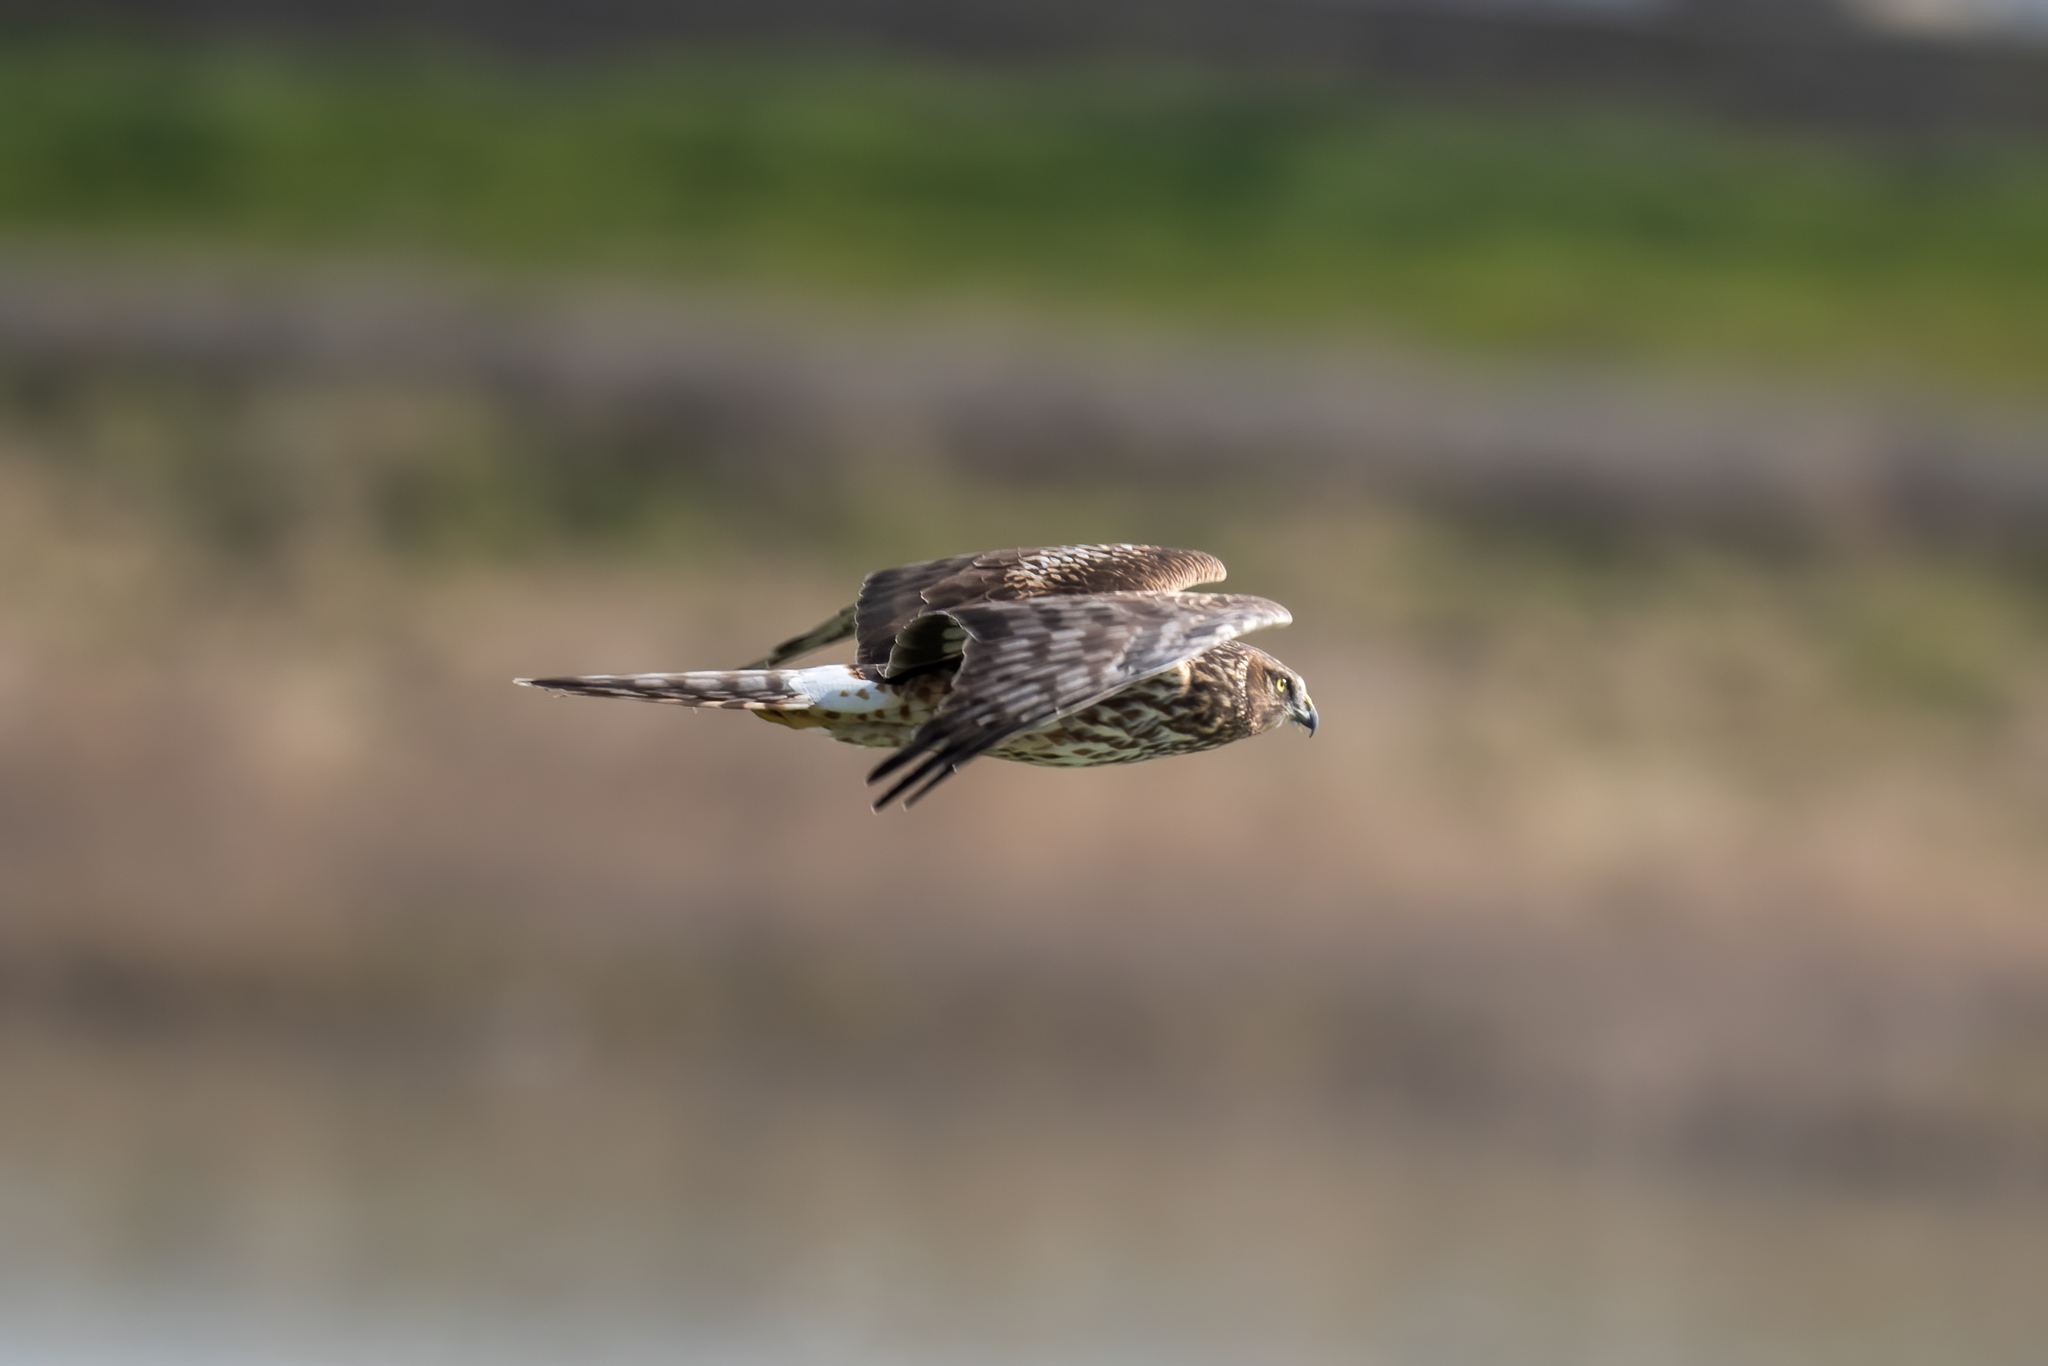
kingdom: Animalia
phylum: Chordata
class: Aves
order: Accipitriformes
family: Accipitridae
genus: Circus
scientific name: Circus cyaneus
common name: Hen harrier
